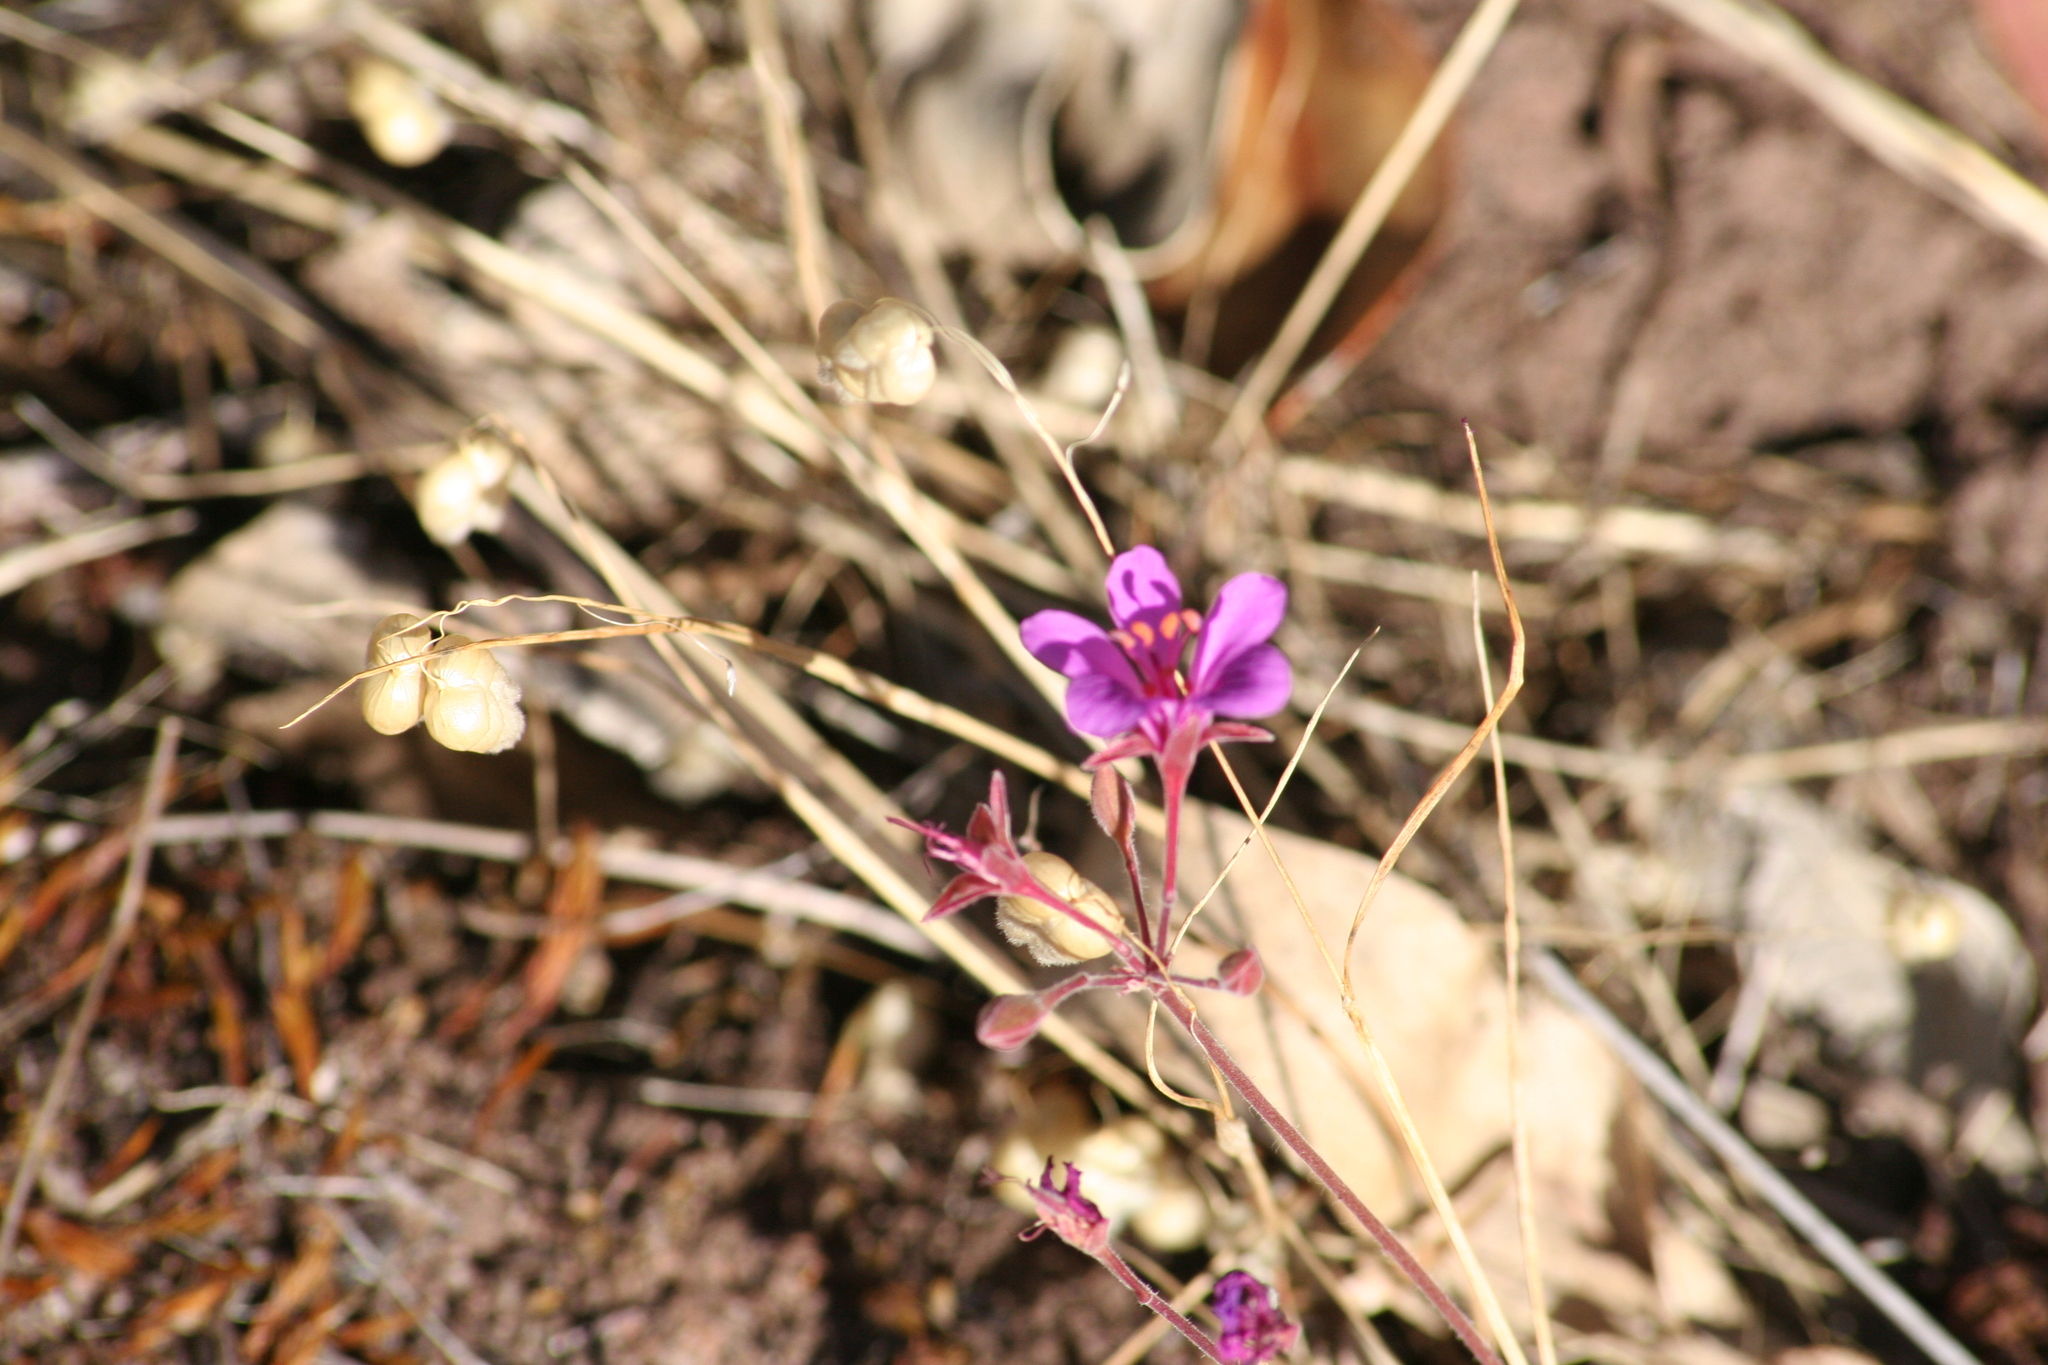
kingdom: Plantae
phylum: Tracheophyta
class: Magnoliopsida
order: Geraniales
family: Geraniaceae
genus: Pelargonium
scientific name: Pelargonium rodneyanum
